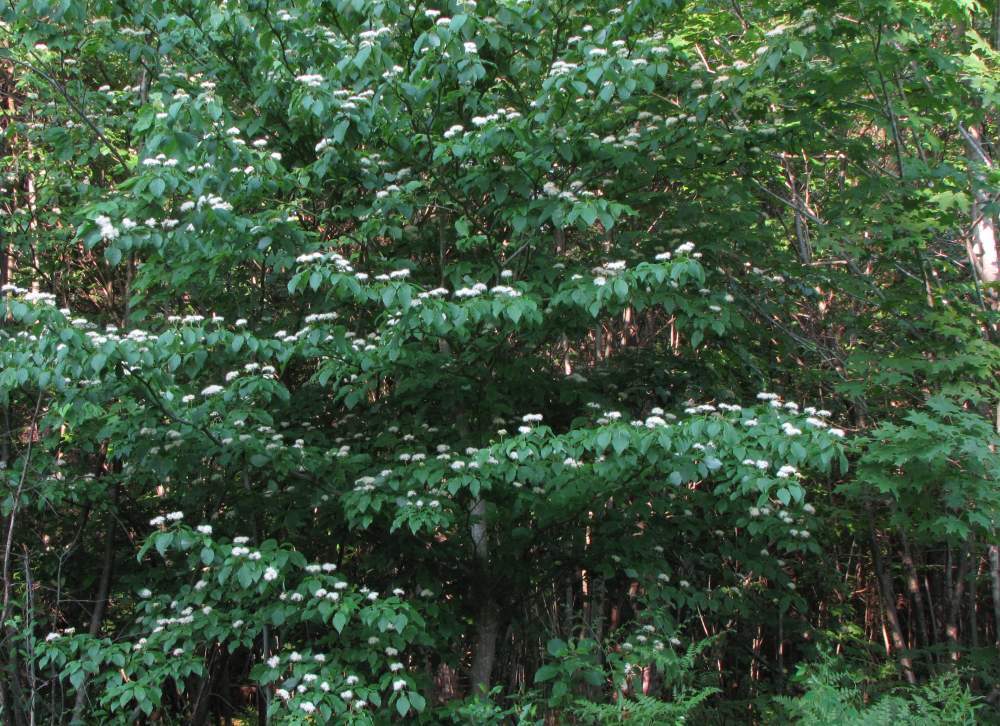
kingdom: Plantae
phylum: Tracheophyta
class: Magnoliopsida
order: Cornales
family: Cornaceae
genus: Cornus
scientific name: Cornus alternifolia
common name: Pagoda dogwood
